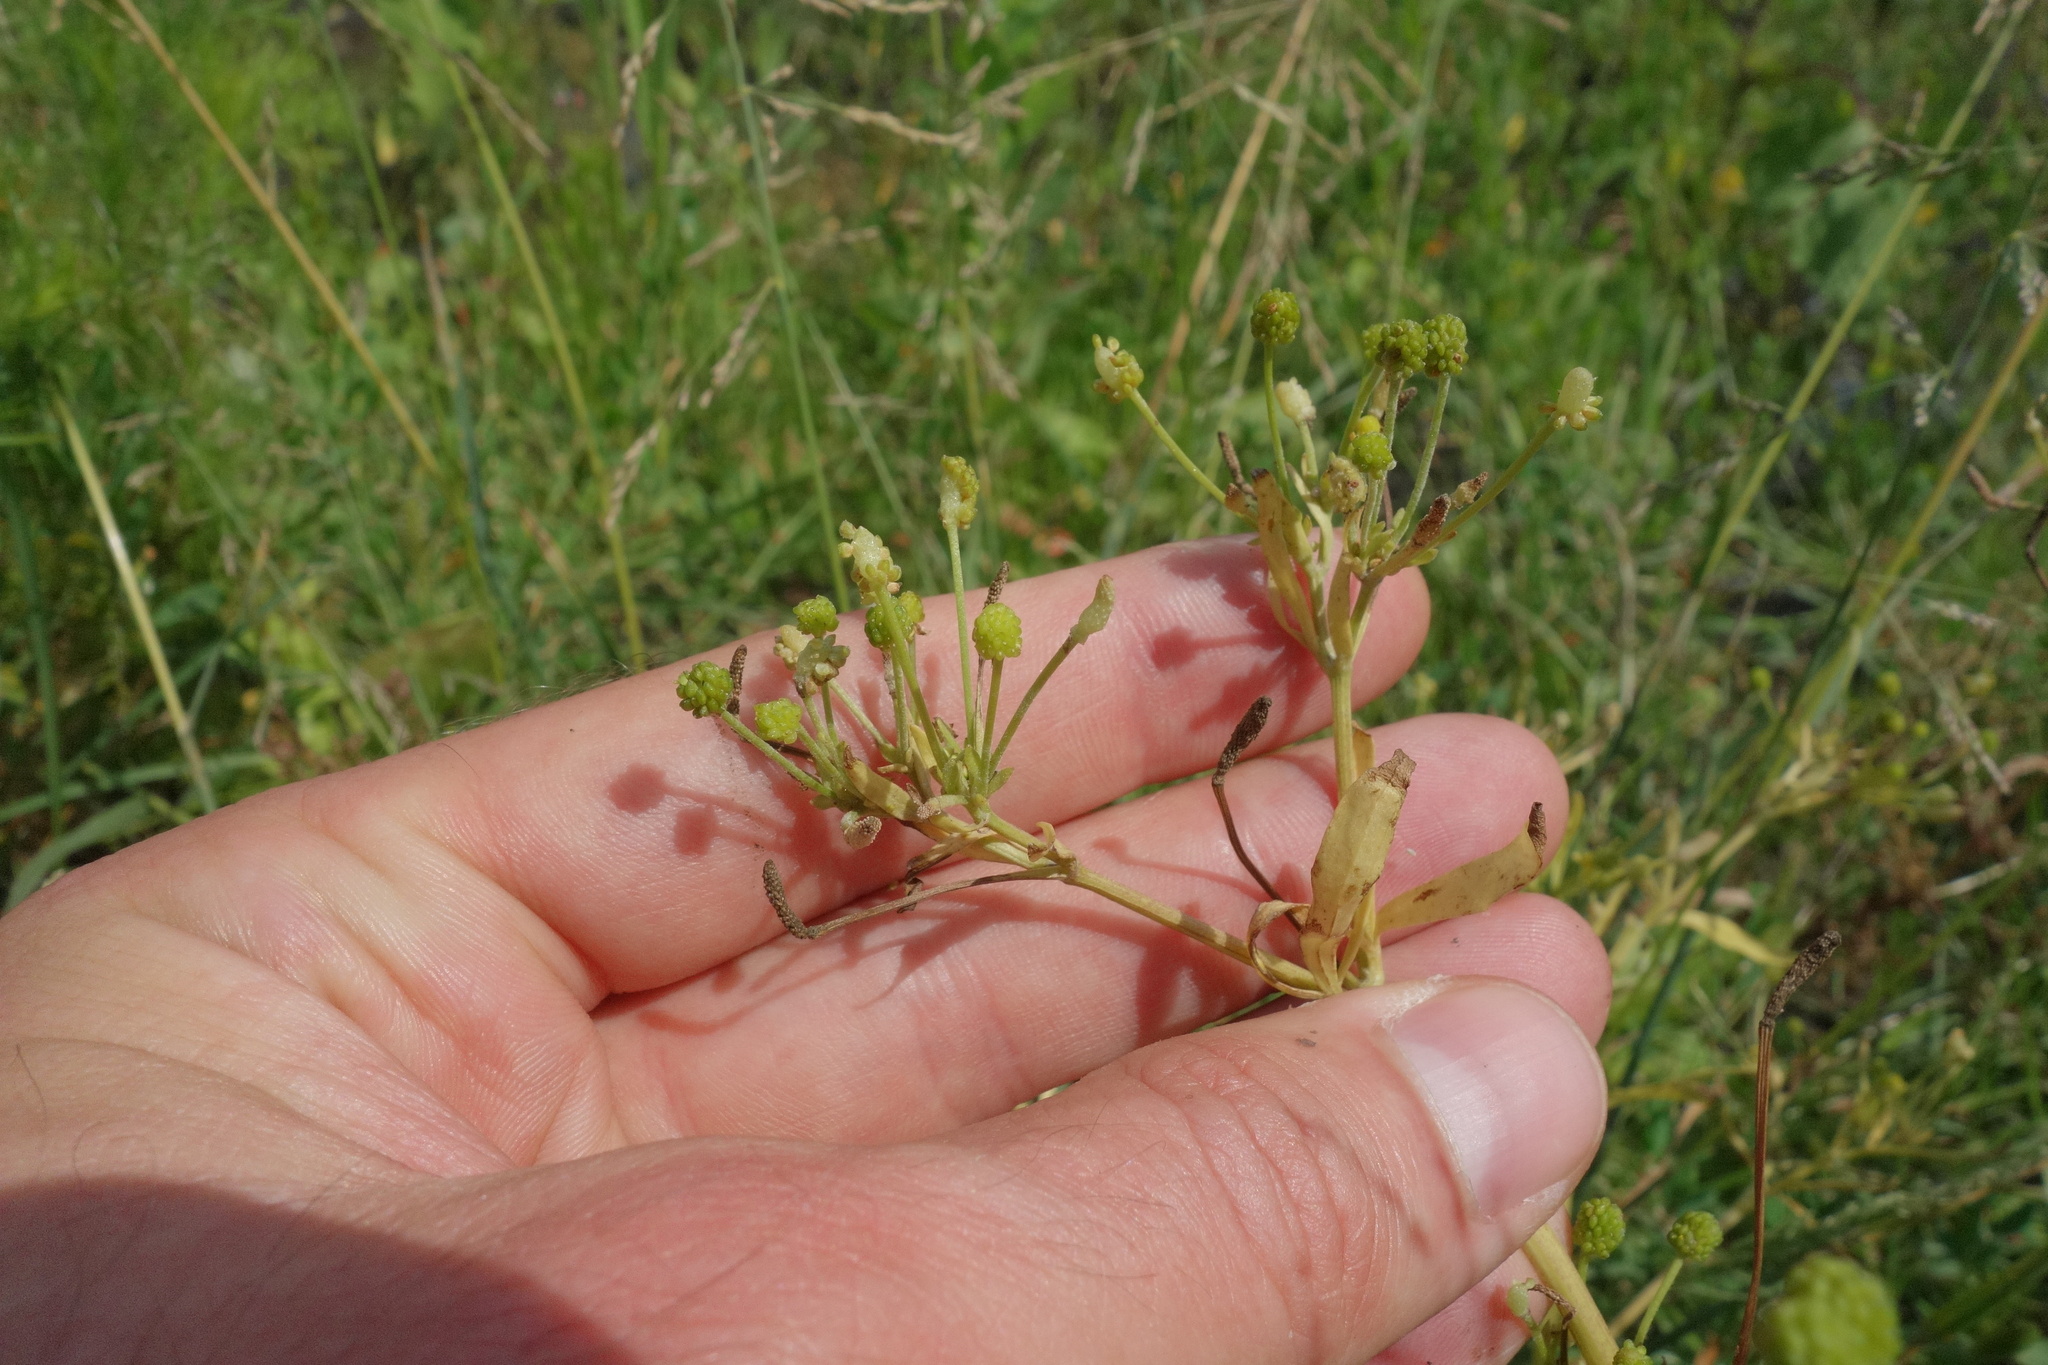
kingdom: Plantae
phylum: Tracheophyta
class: Magnoliopsida
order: Ranunculales
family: Ranunculaceae
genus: Ranunculus
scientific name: Ranunculus sceleratus
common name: Celery-leaved buttercup
